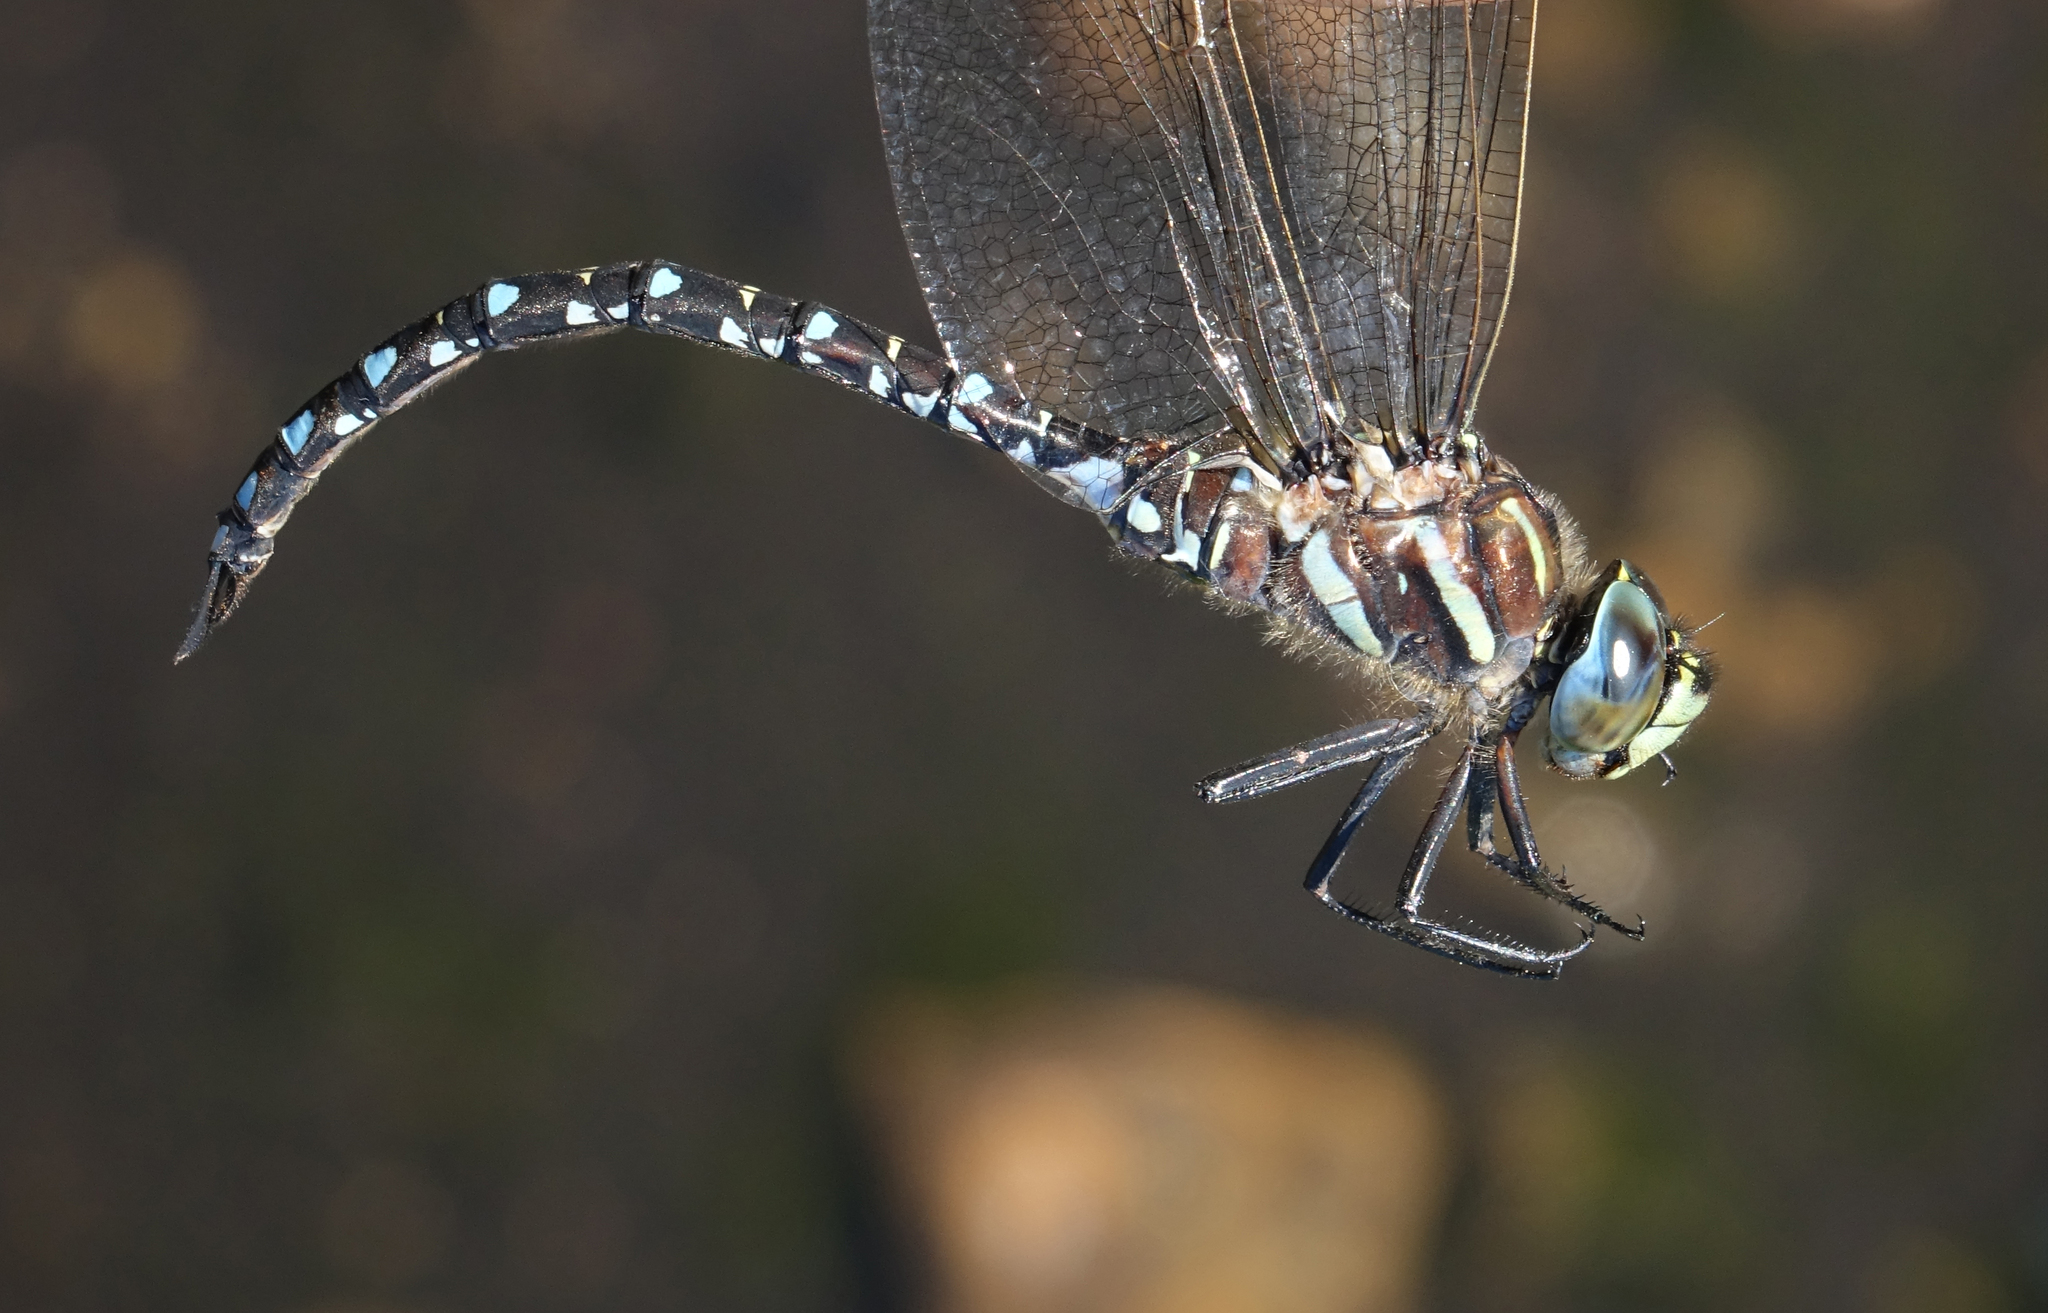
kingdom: Animalia
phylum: Arthropoda
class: Insecta
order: Odonata
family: Aeshnidae
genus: Aeshna
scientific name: Aeshna juncea
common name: Moorland hawker
